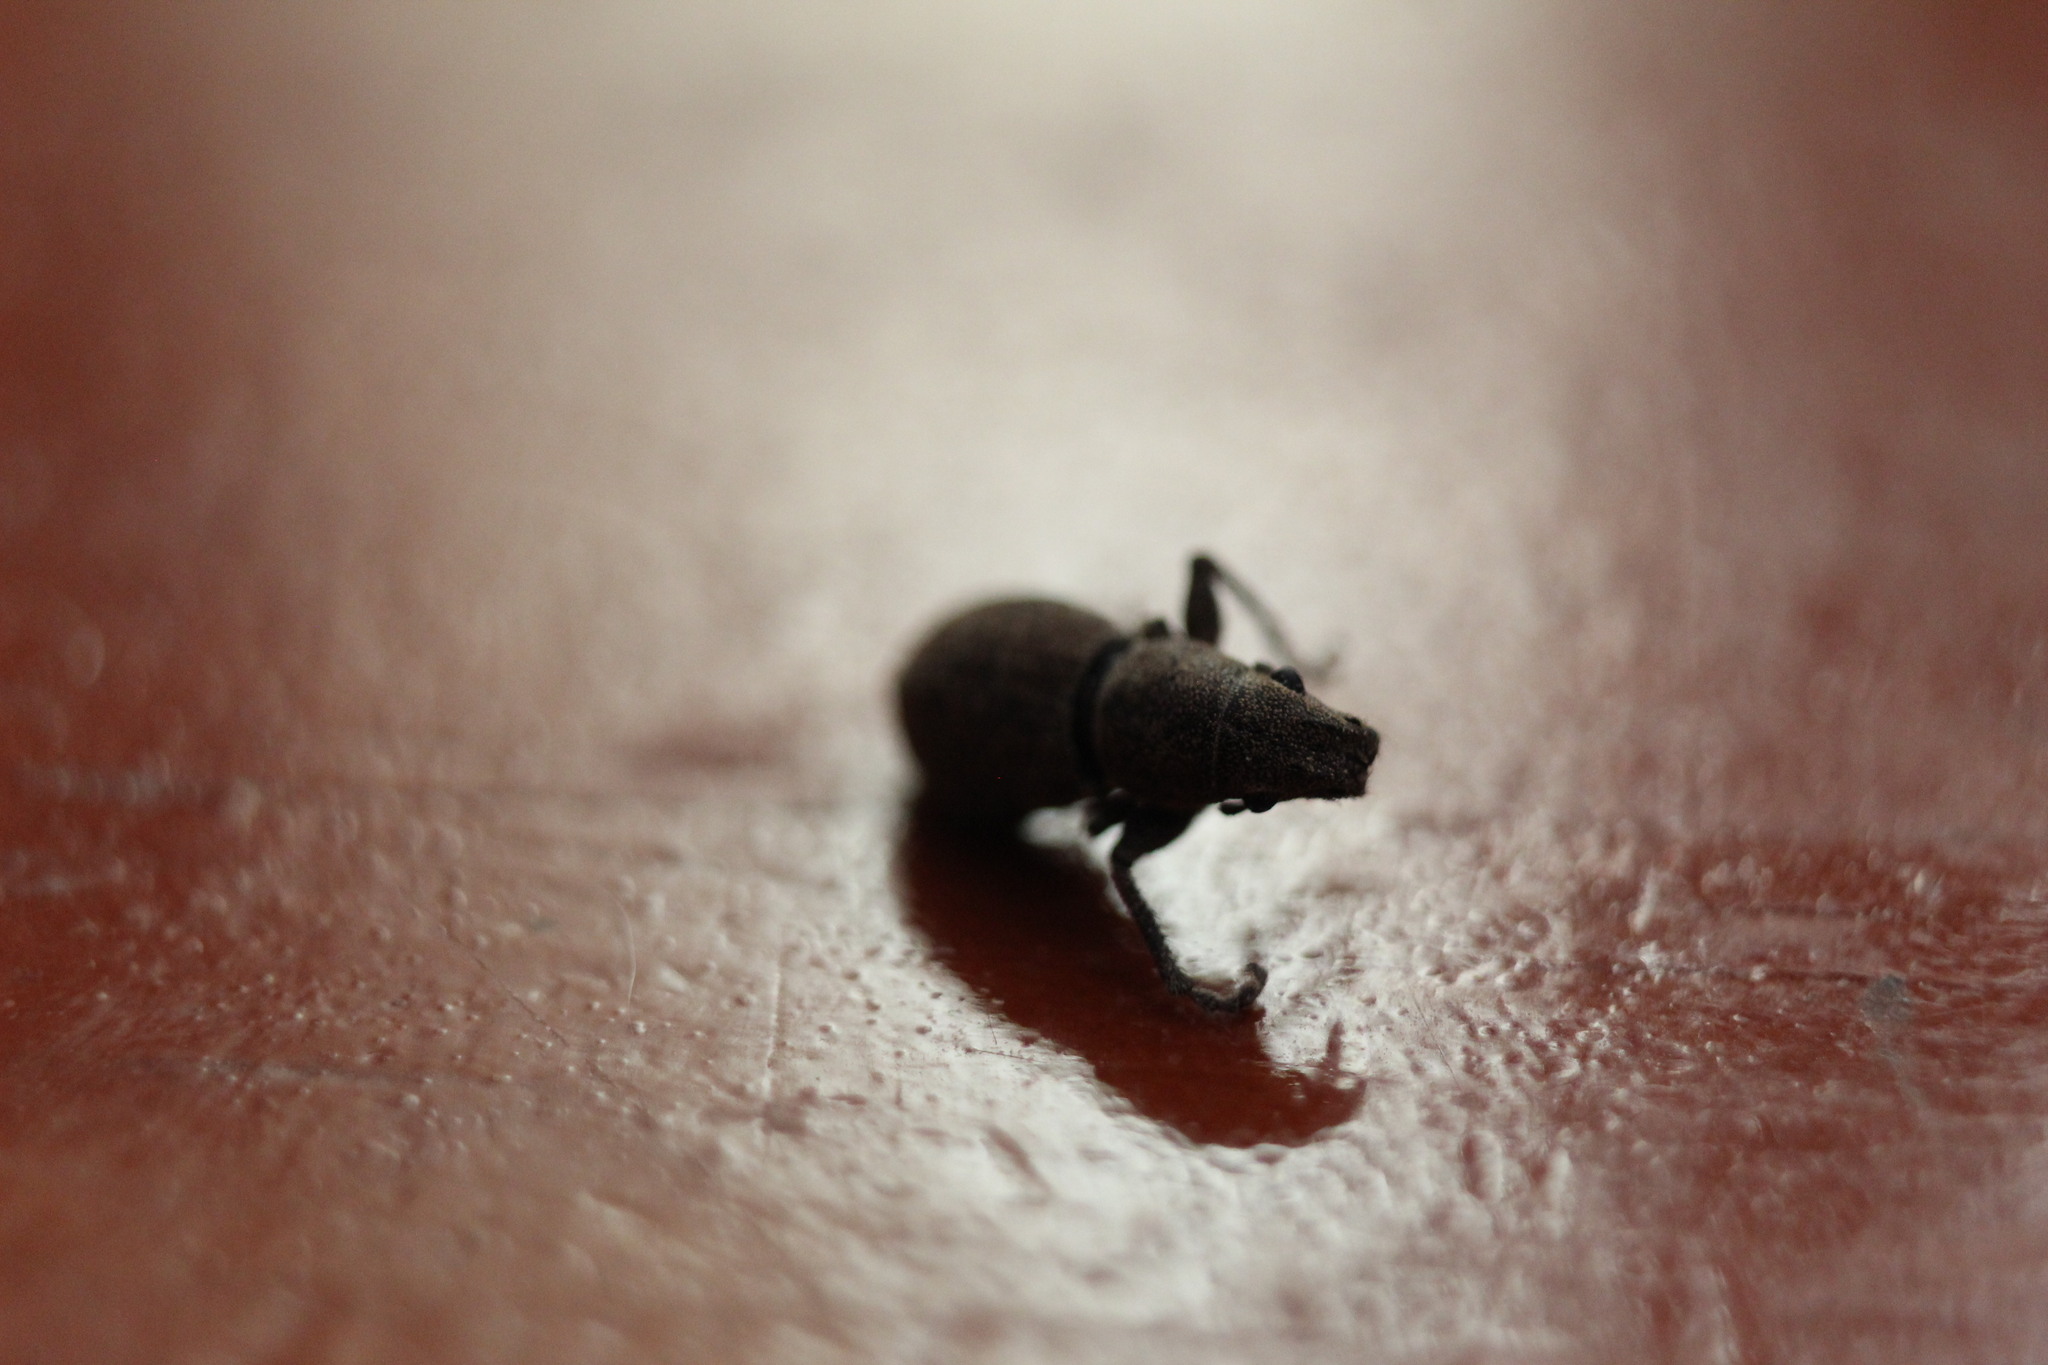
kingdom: Animalia
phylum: Arthropoda
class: Insecta
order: Coleoptera
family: Curculionidae
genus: Naupactus
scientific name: Naupactus cervinus
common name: Fuller rose beetle
